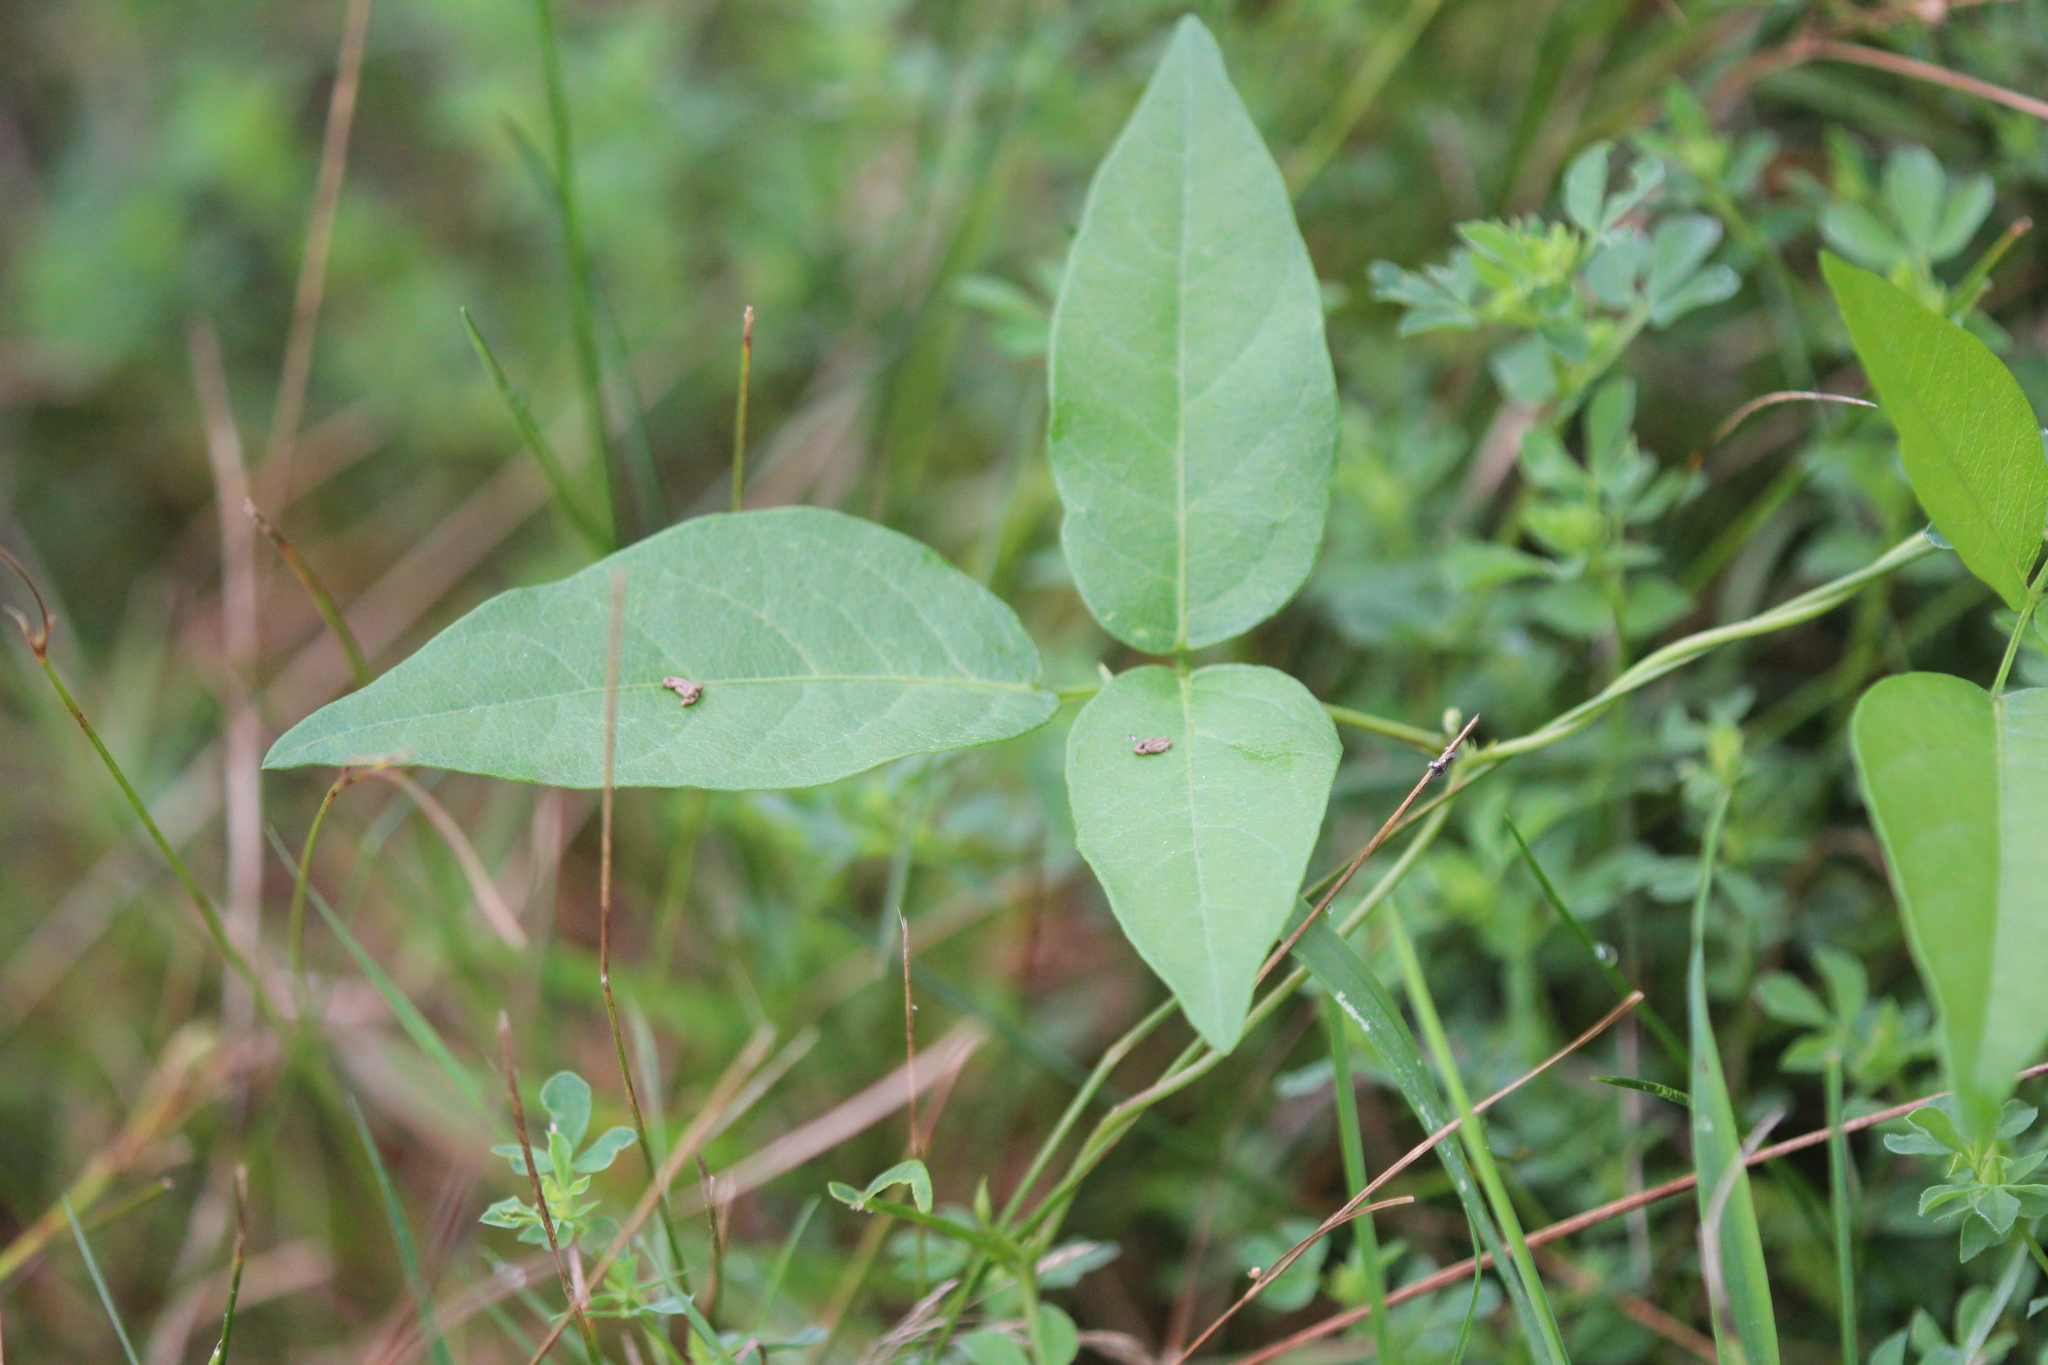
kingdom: Plantae
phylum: Tracheophyta
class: Magnoliopsida
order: Fabales
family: Fabaceae
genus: Apios
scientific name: Apios americana
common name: American potato-bean
